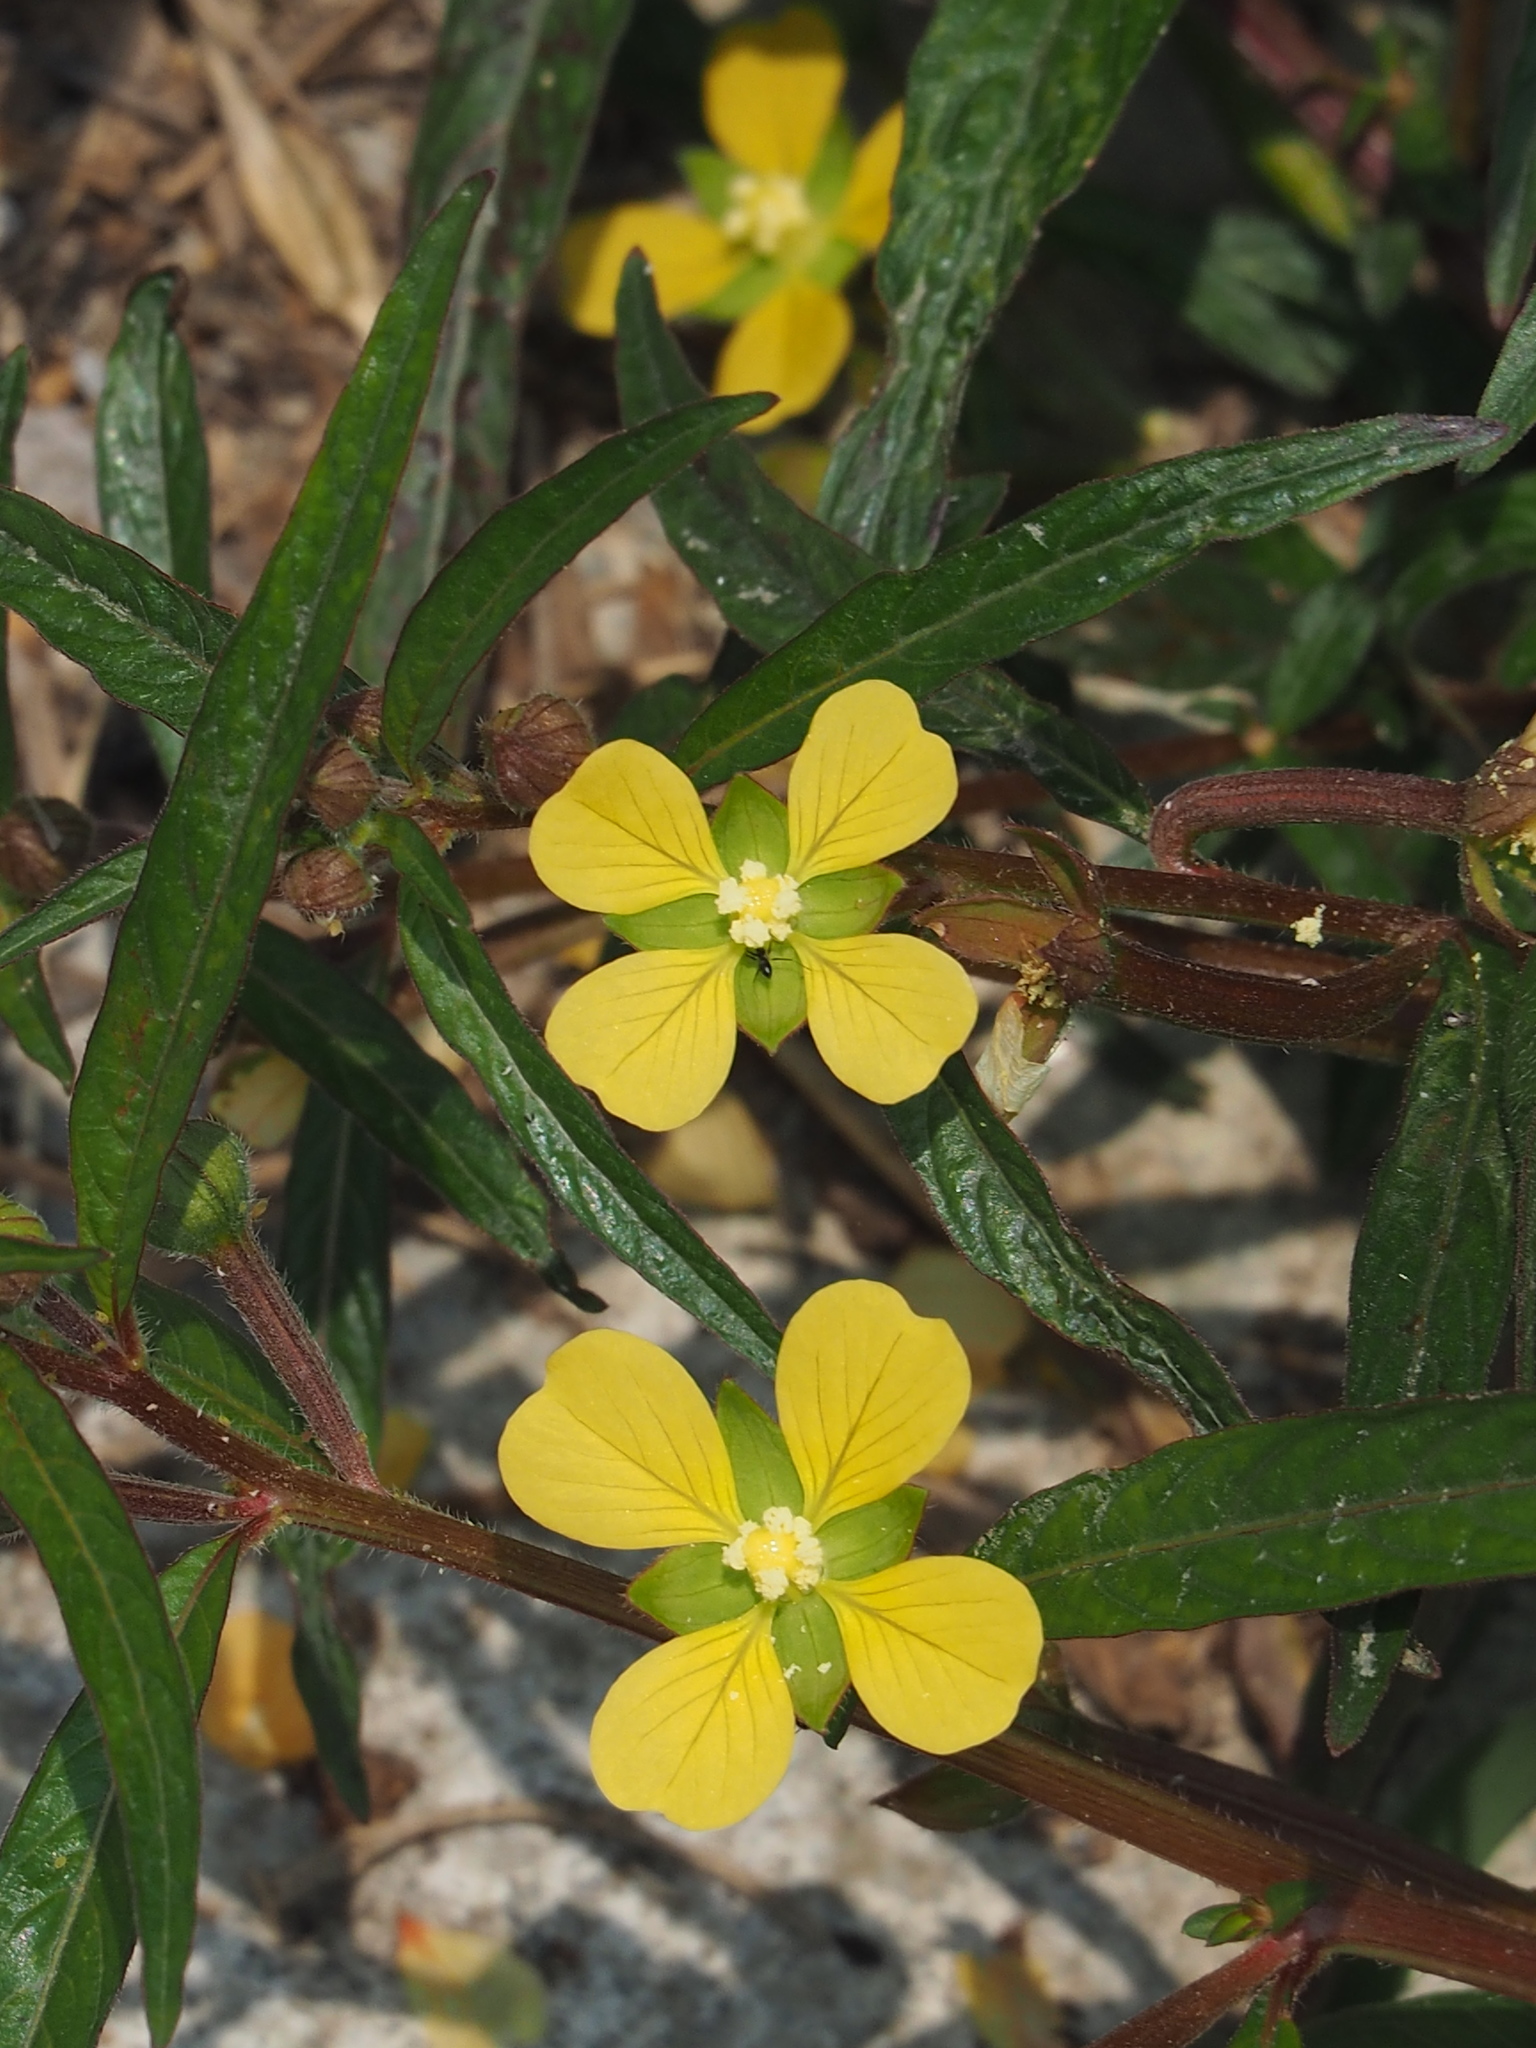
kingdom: Plantae
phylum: Tracheophyta
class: Magnoliopsida
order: Myrtales
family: Onagraceae
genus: Ludwigia
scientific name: Ludwigia octovalvis
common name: Water-primrose
